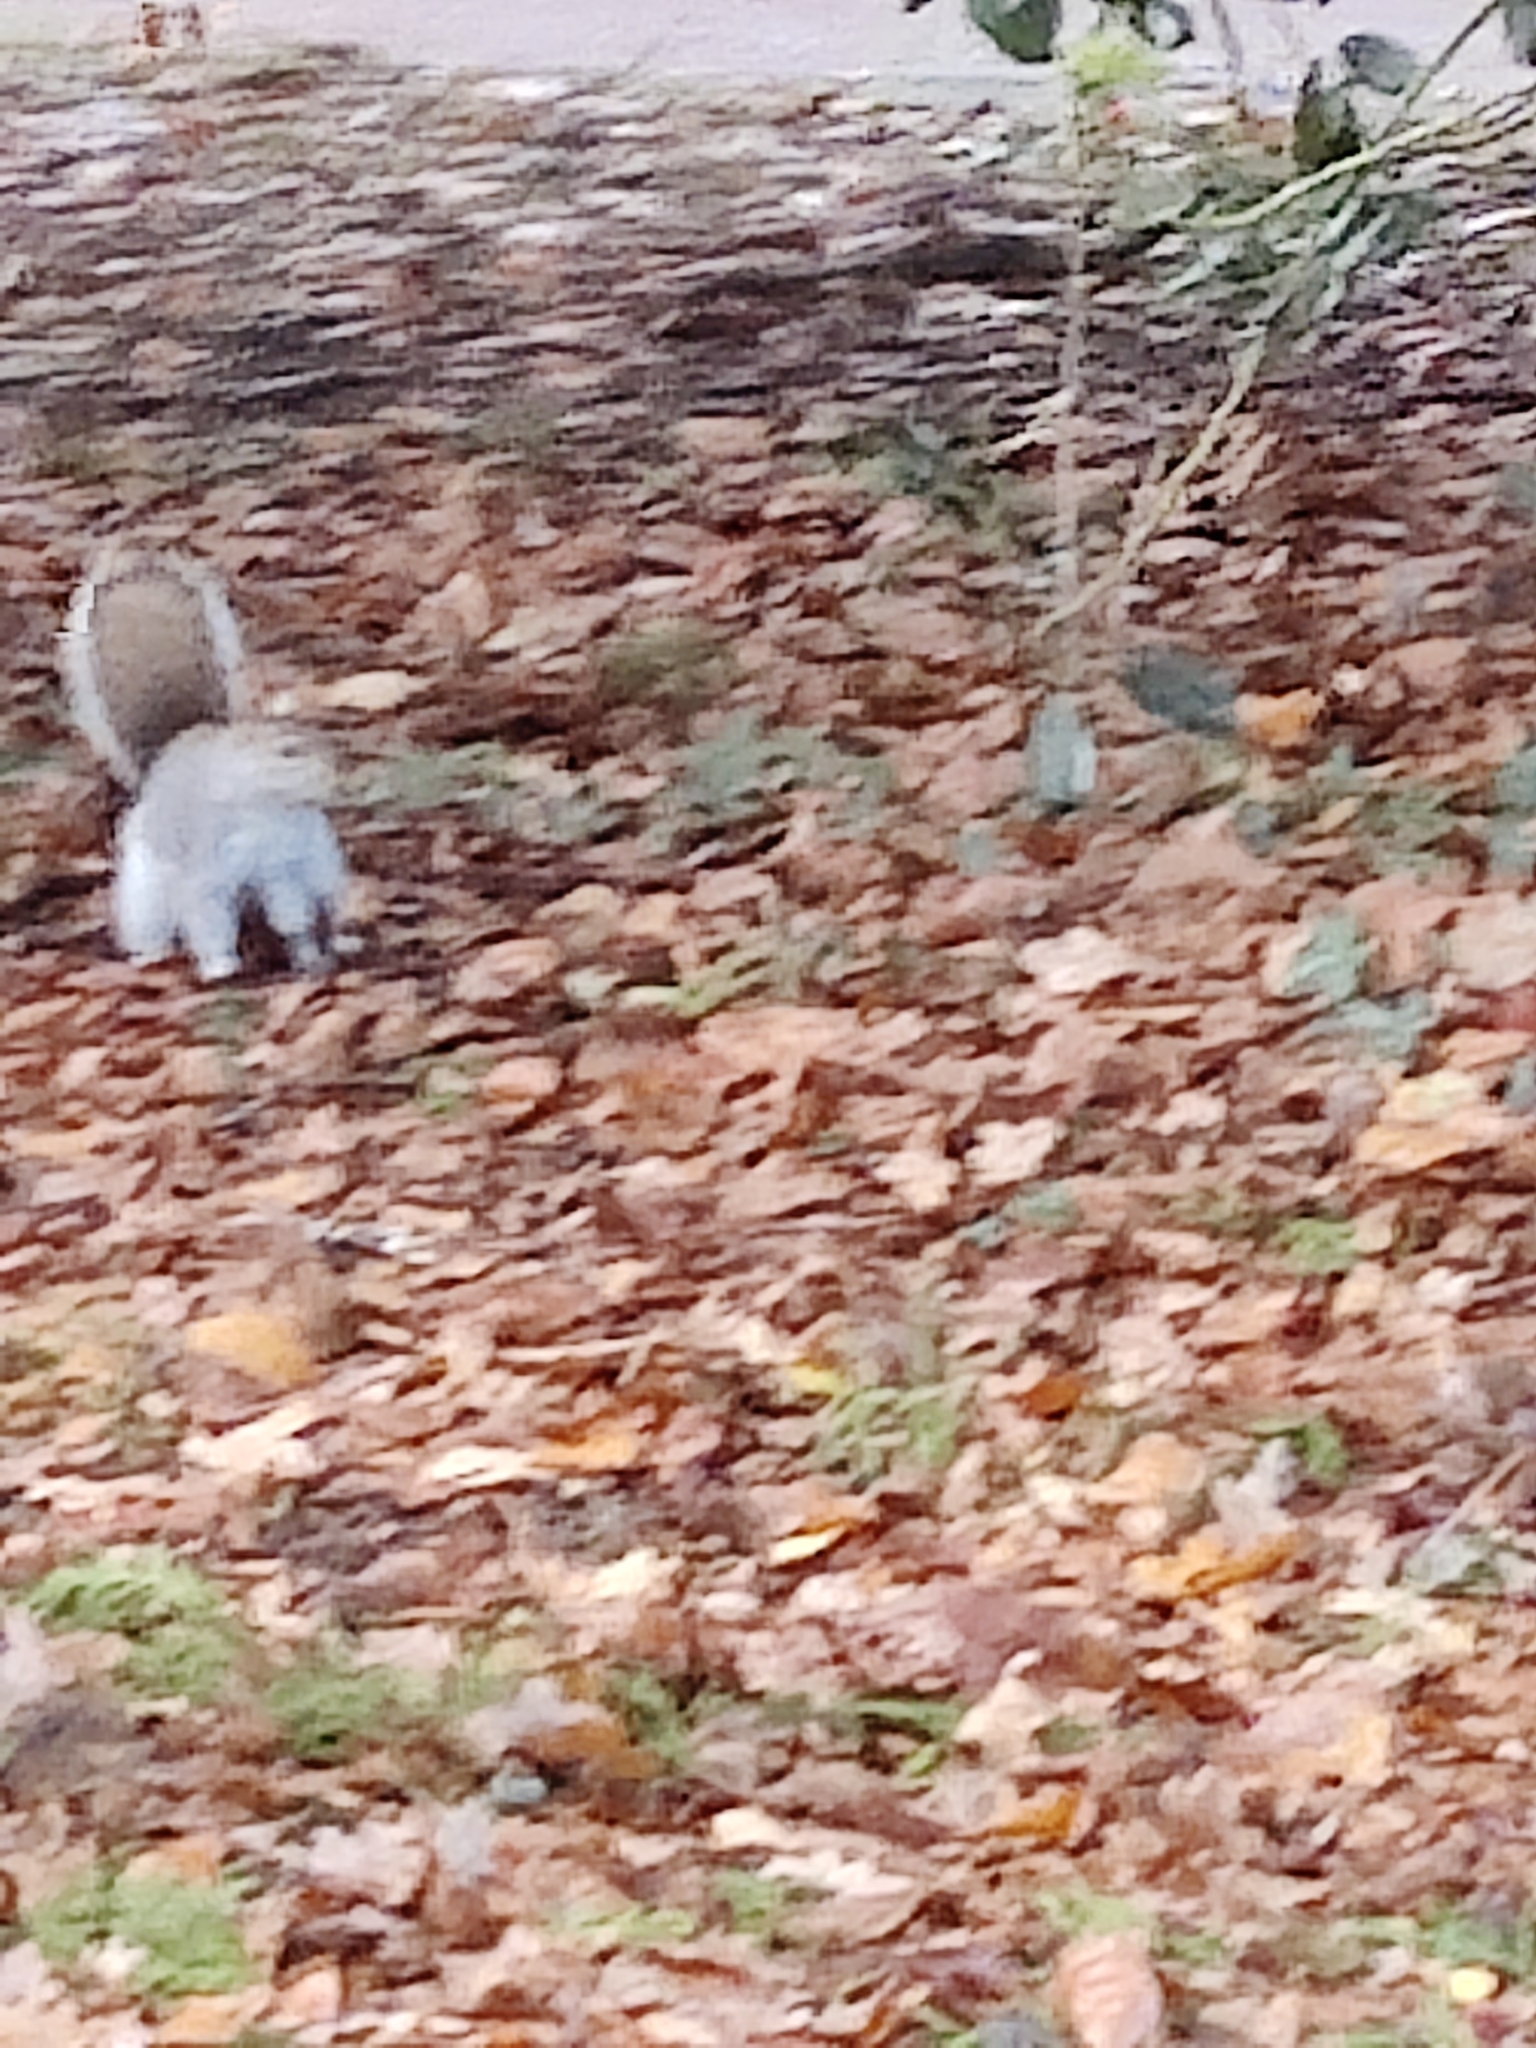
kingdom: Animalia
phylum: Chordata
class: Mammalia
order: Rodentia
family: Sciuridae
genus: Sciurus
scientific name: Sciurus carolinensis
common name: Eastern gray squirrel
